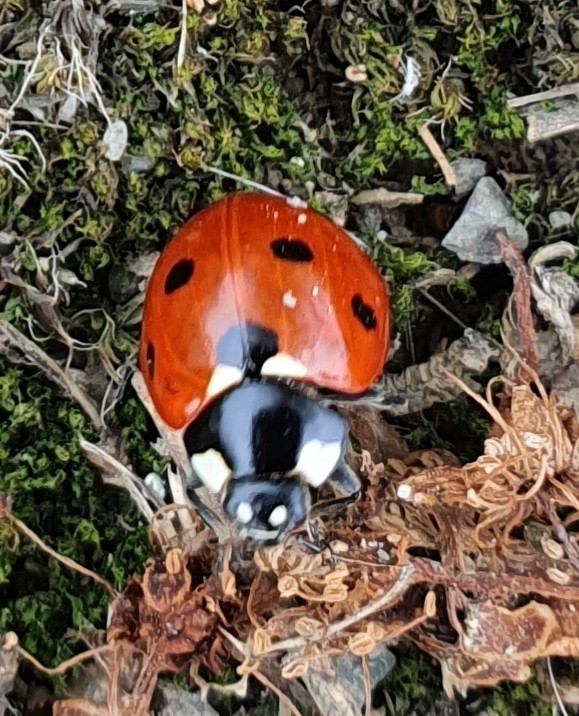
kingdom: Animalia
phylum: Arthropoda
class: Insecta
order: Coleoptera
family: Coccinellidae
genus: Coccinella
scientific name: Coccinella septempunctata
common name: Sevenspotted lady beetle
